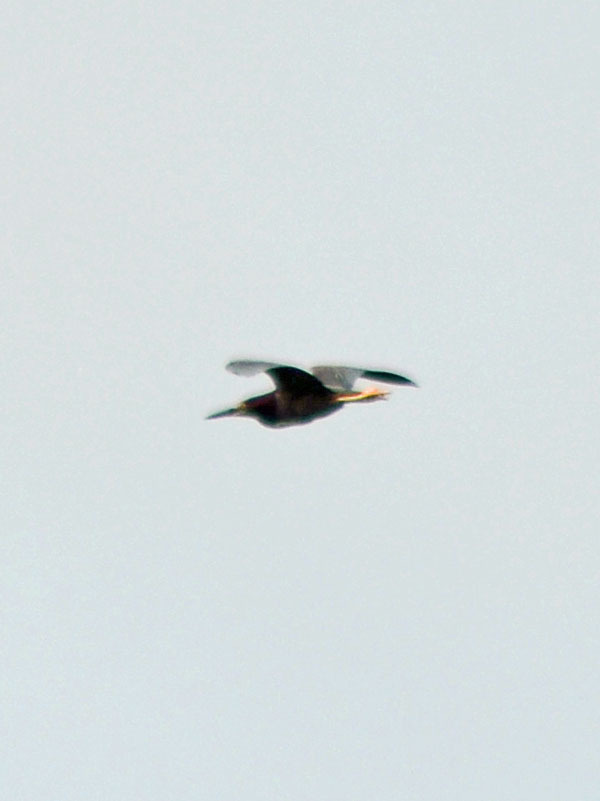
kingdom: Animalia
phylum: Chordata
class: Aves
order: Pelecaniformes
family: Ardeidae
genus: Butorides
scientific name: Butorides virescens
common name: Green heron
